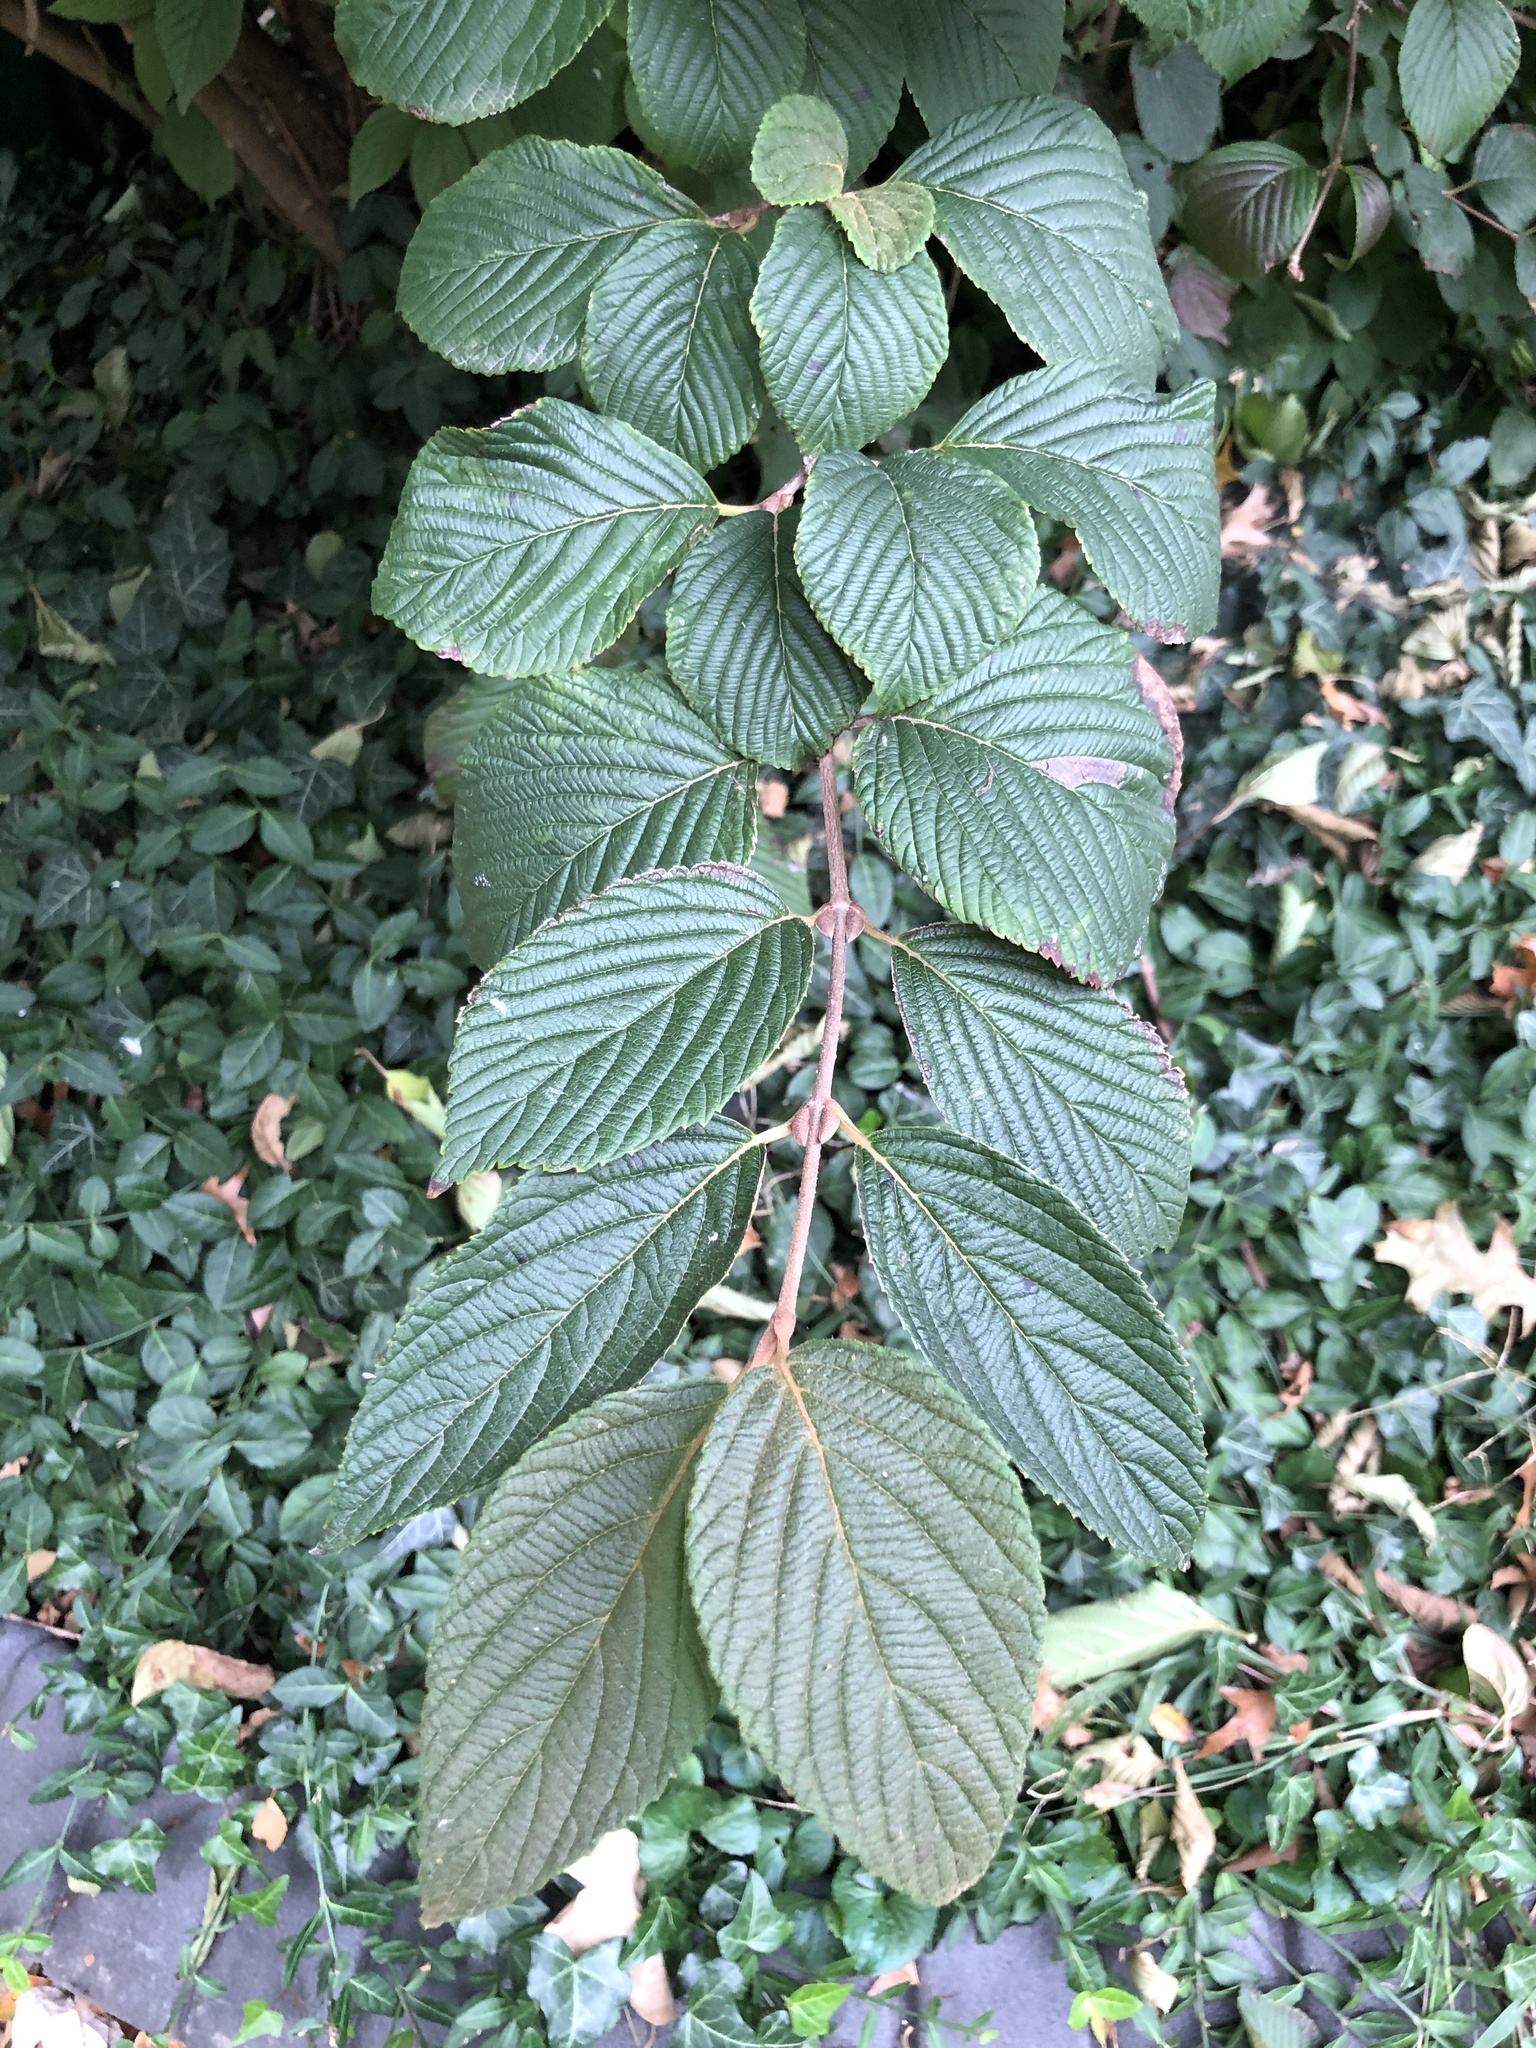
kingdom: Plantae
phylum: Tracheophyta
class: Magnoliopsida
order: Dipsacales
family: Viburnaceae
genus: Viburnum
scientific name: Viburnum plicatum
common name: Japanese snowball
